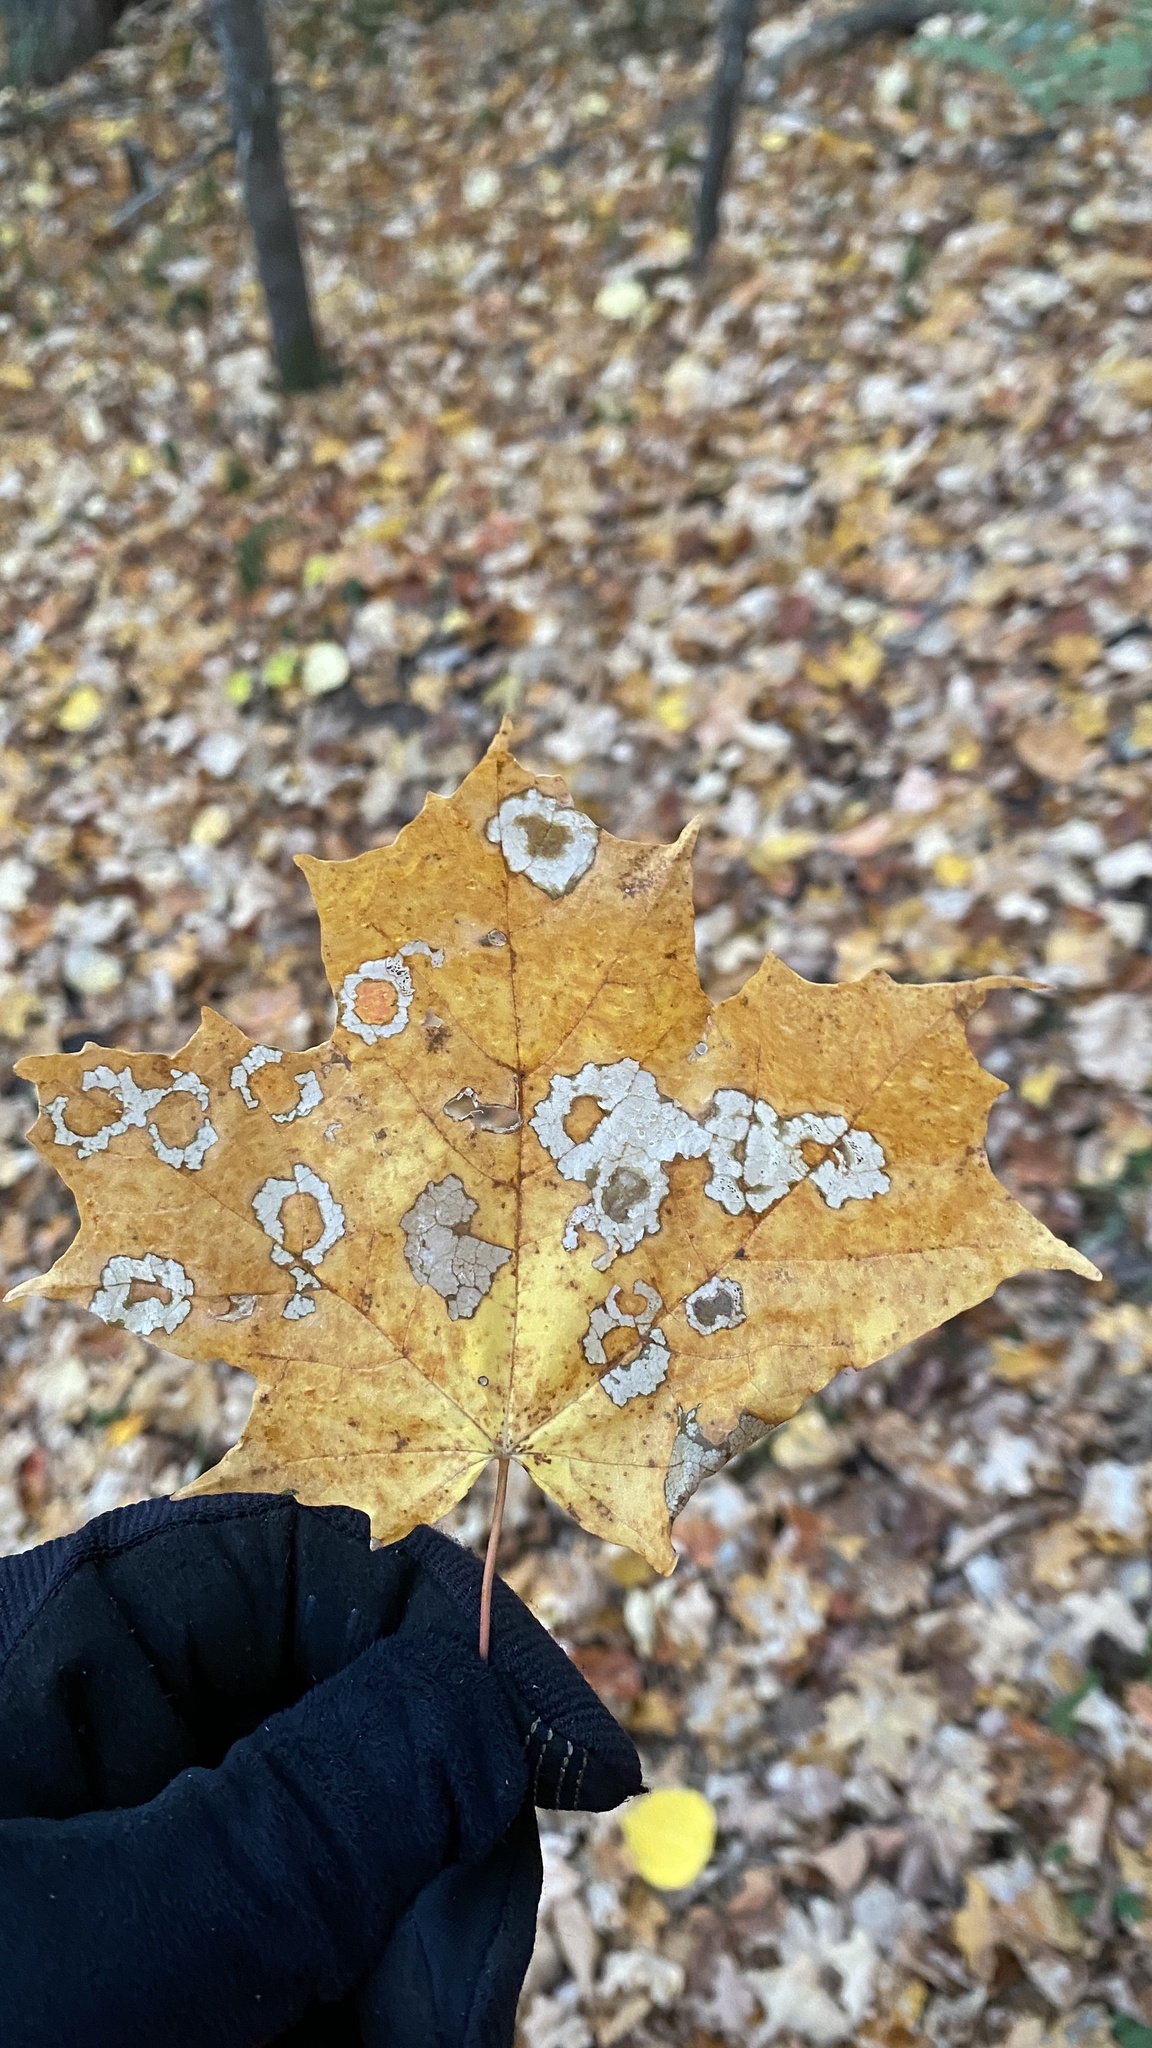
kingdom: Plantae
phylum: Tracheophyta
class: Magnoliopsida
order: Sapindales
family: Sapindaceae
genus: Acer
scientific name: Acer saccharum
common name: Sugar maple
